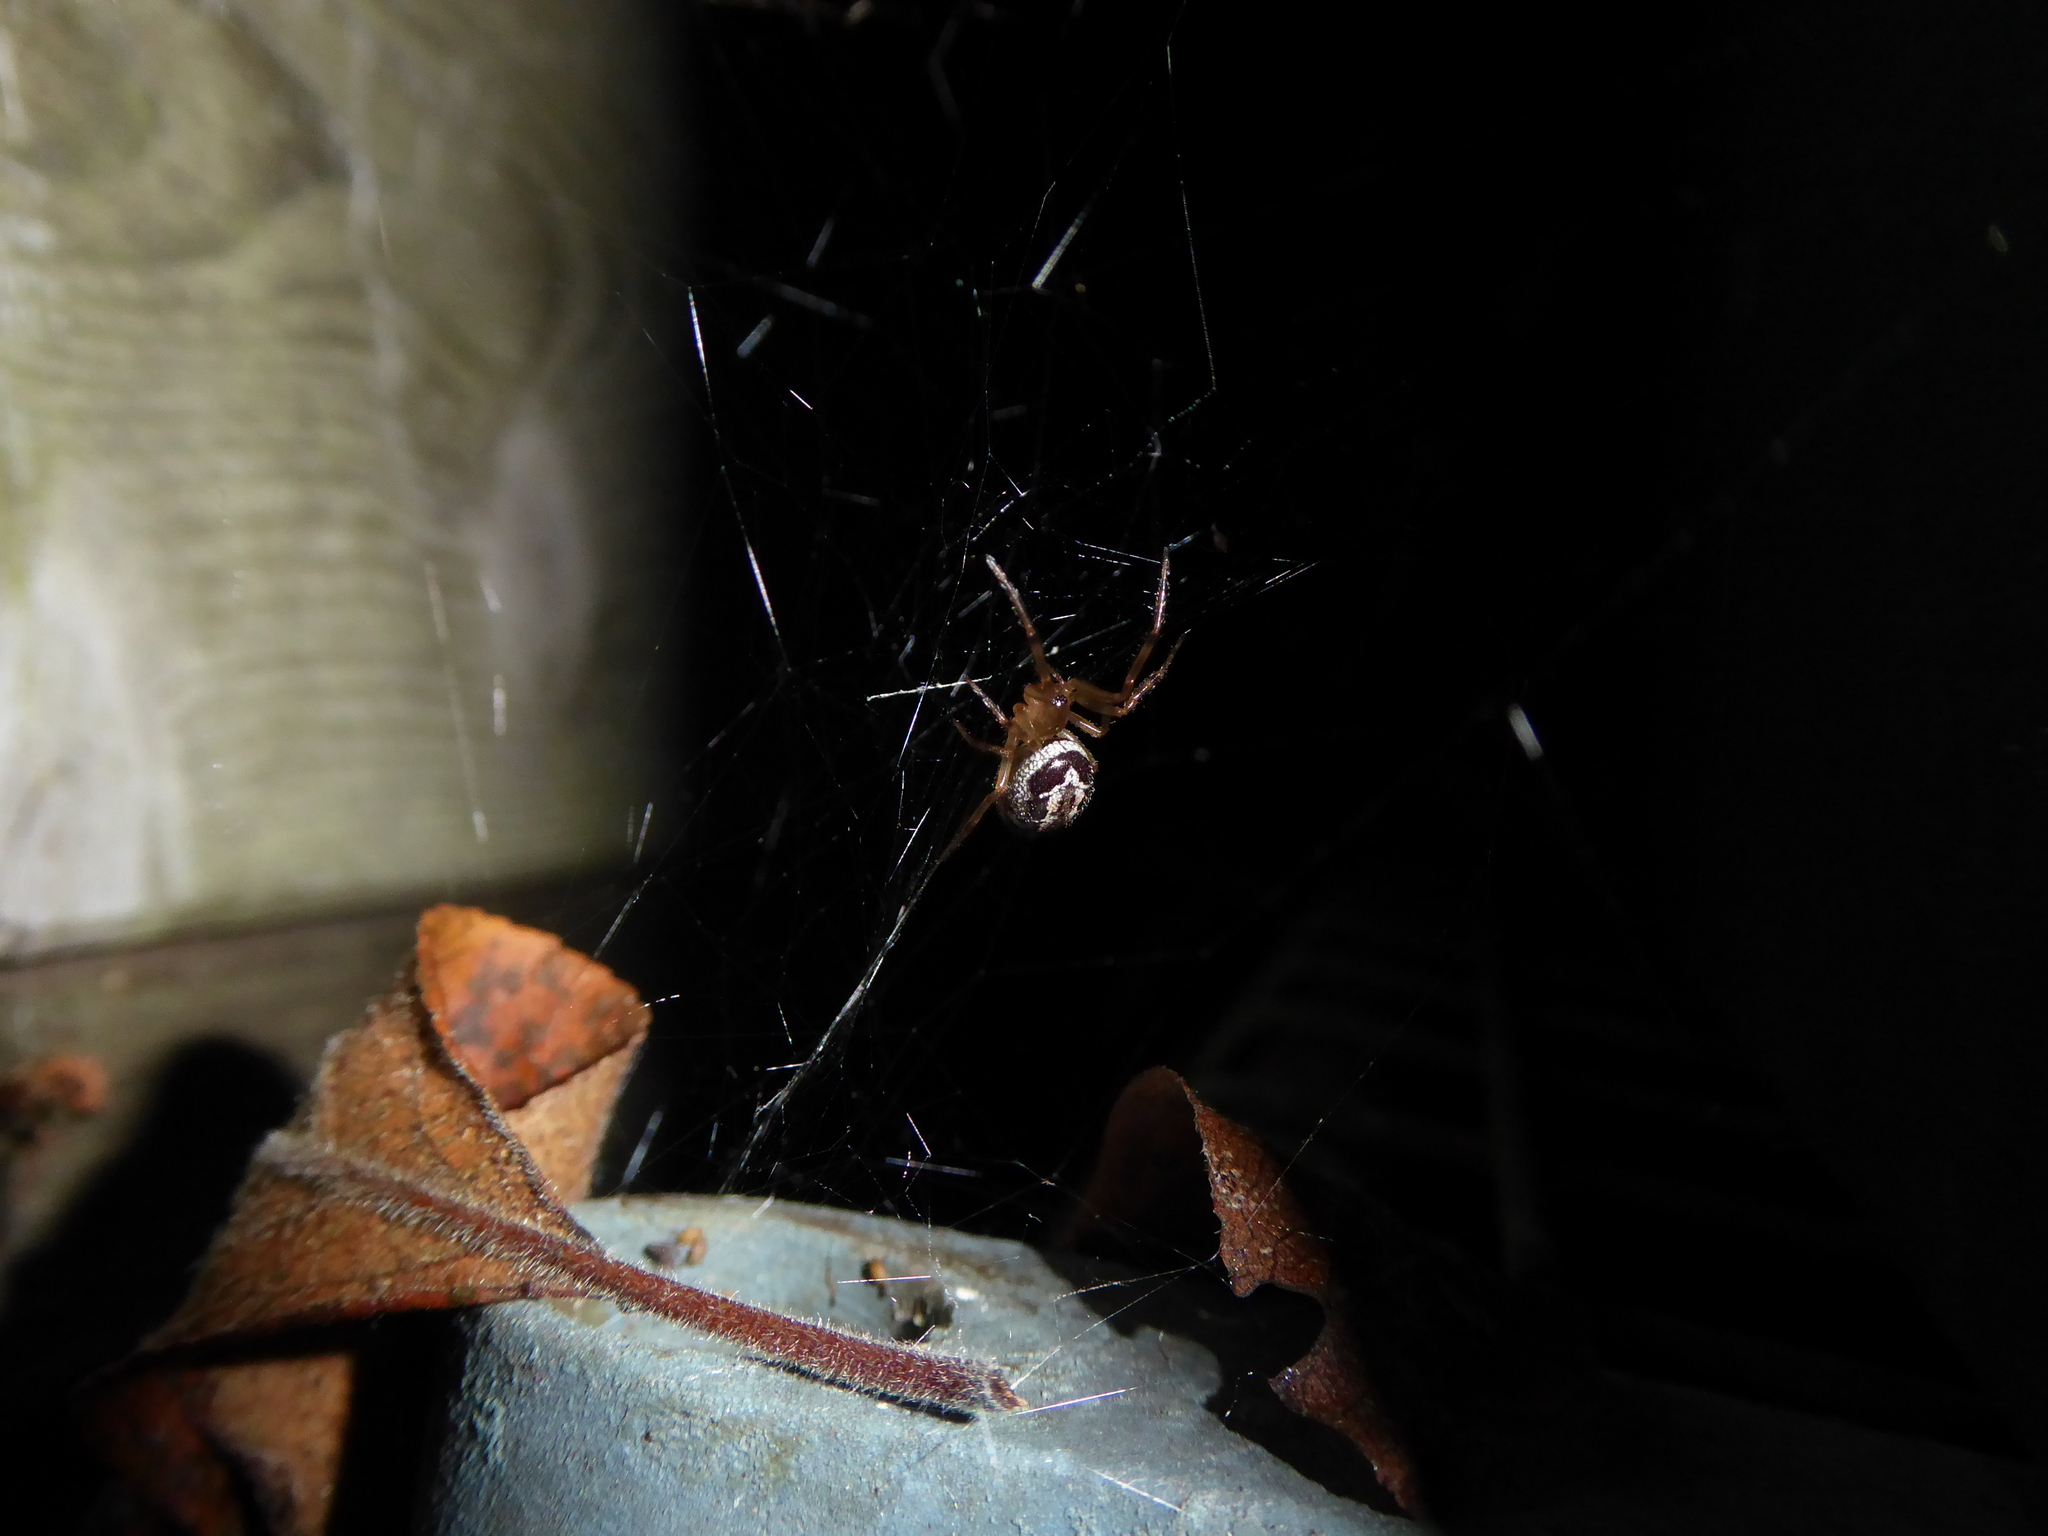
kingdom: Animalia
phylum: Arthropoda
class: Arachnida
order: Araneae
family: Theridiidae
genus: Steatoda
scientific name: Steatoda nobilis
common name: Cobweb weaver
